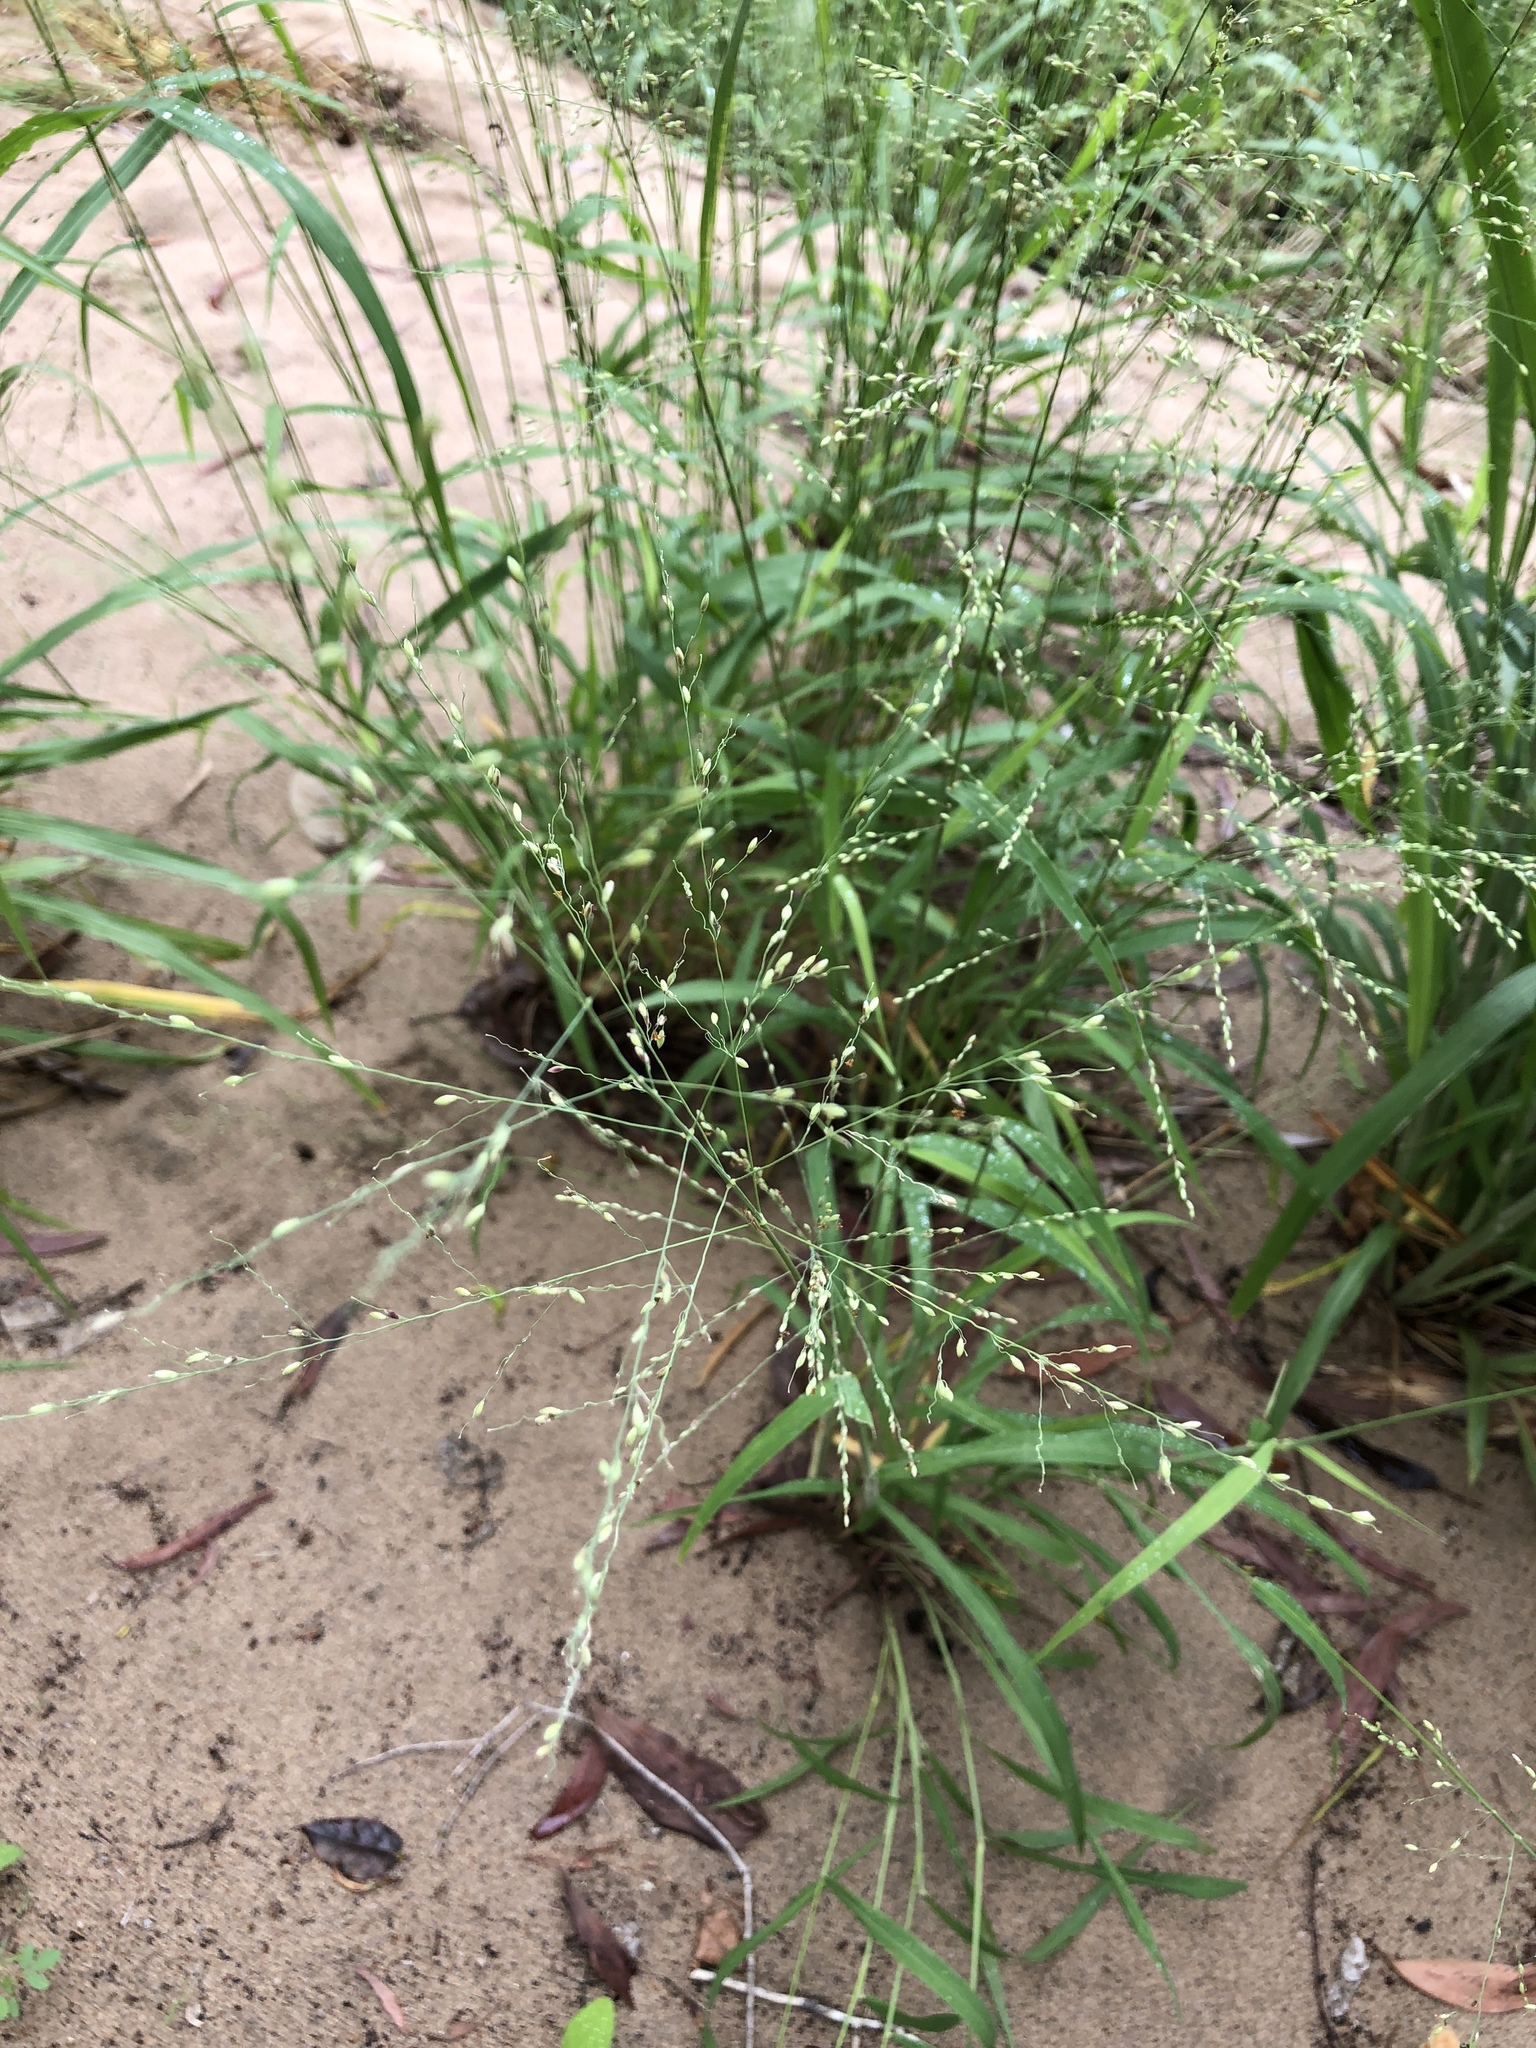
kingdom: Plantae
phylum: Tracheophyta
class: Liliopsida
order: Poales
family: Poaceae
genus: Megathyrsus
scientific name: Megathyrsus maximus
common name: Guineagrass
